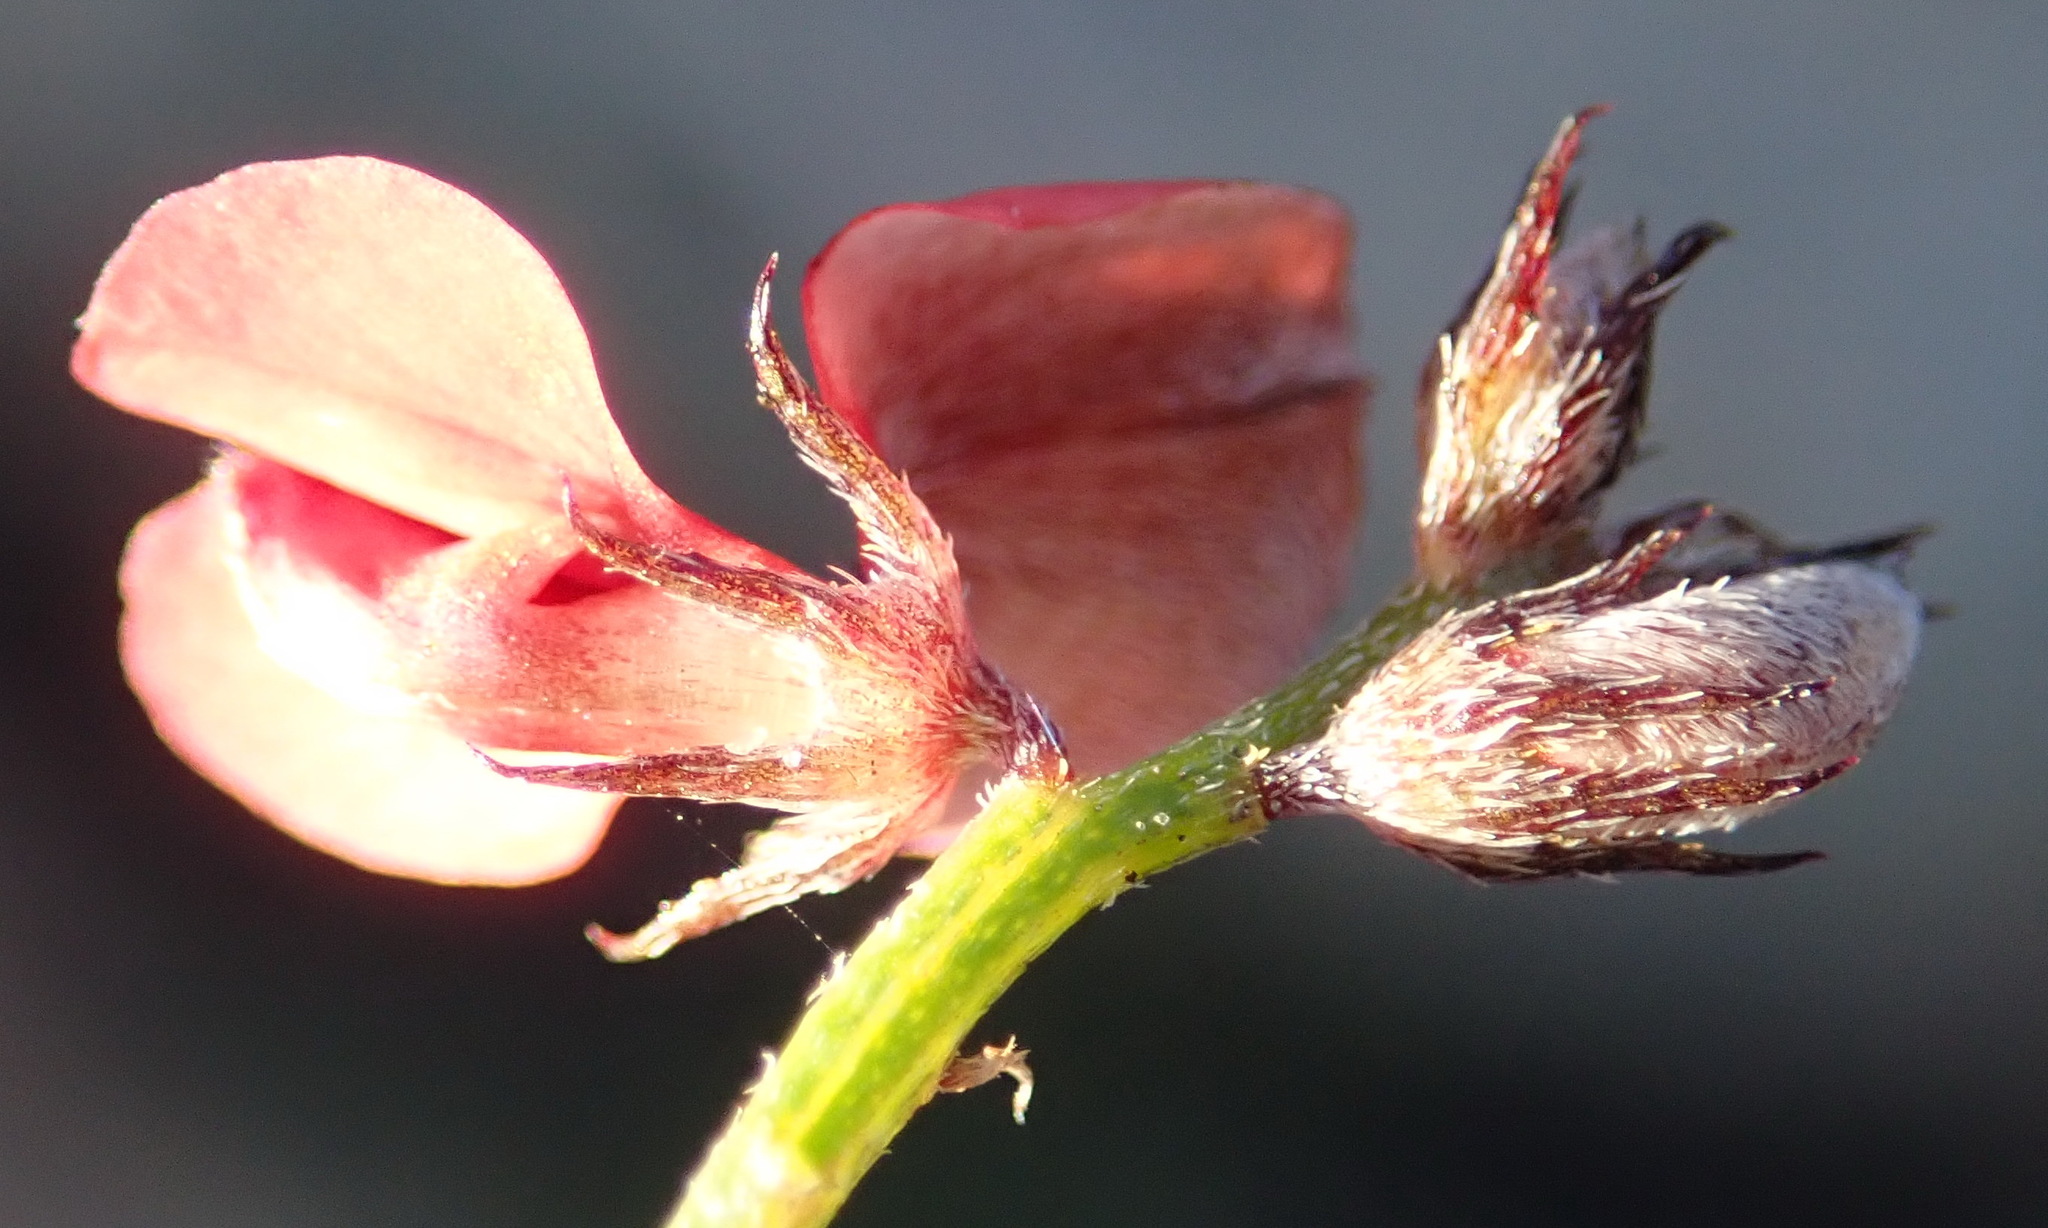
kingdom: Plantae
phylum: Tracheophyta
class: Magnoliopsida
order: Fabales
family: Fabaceae
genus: Indigofera
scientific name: Indigofera leptocarpa
